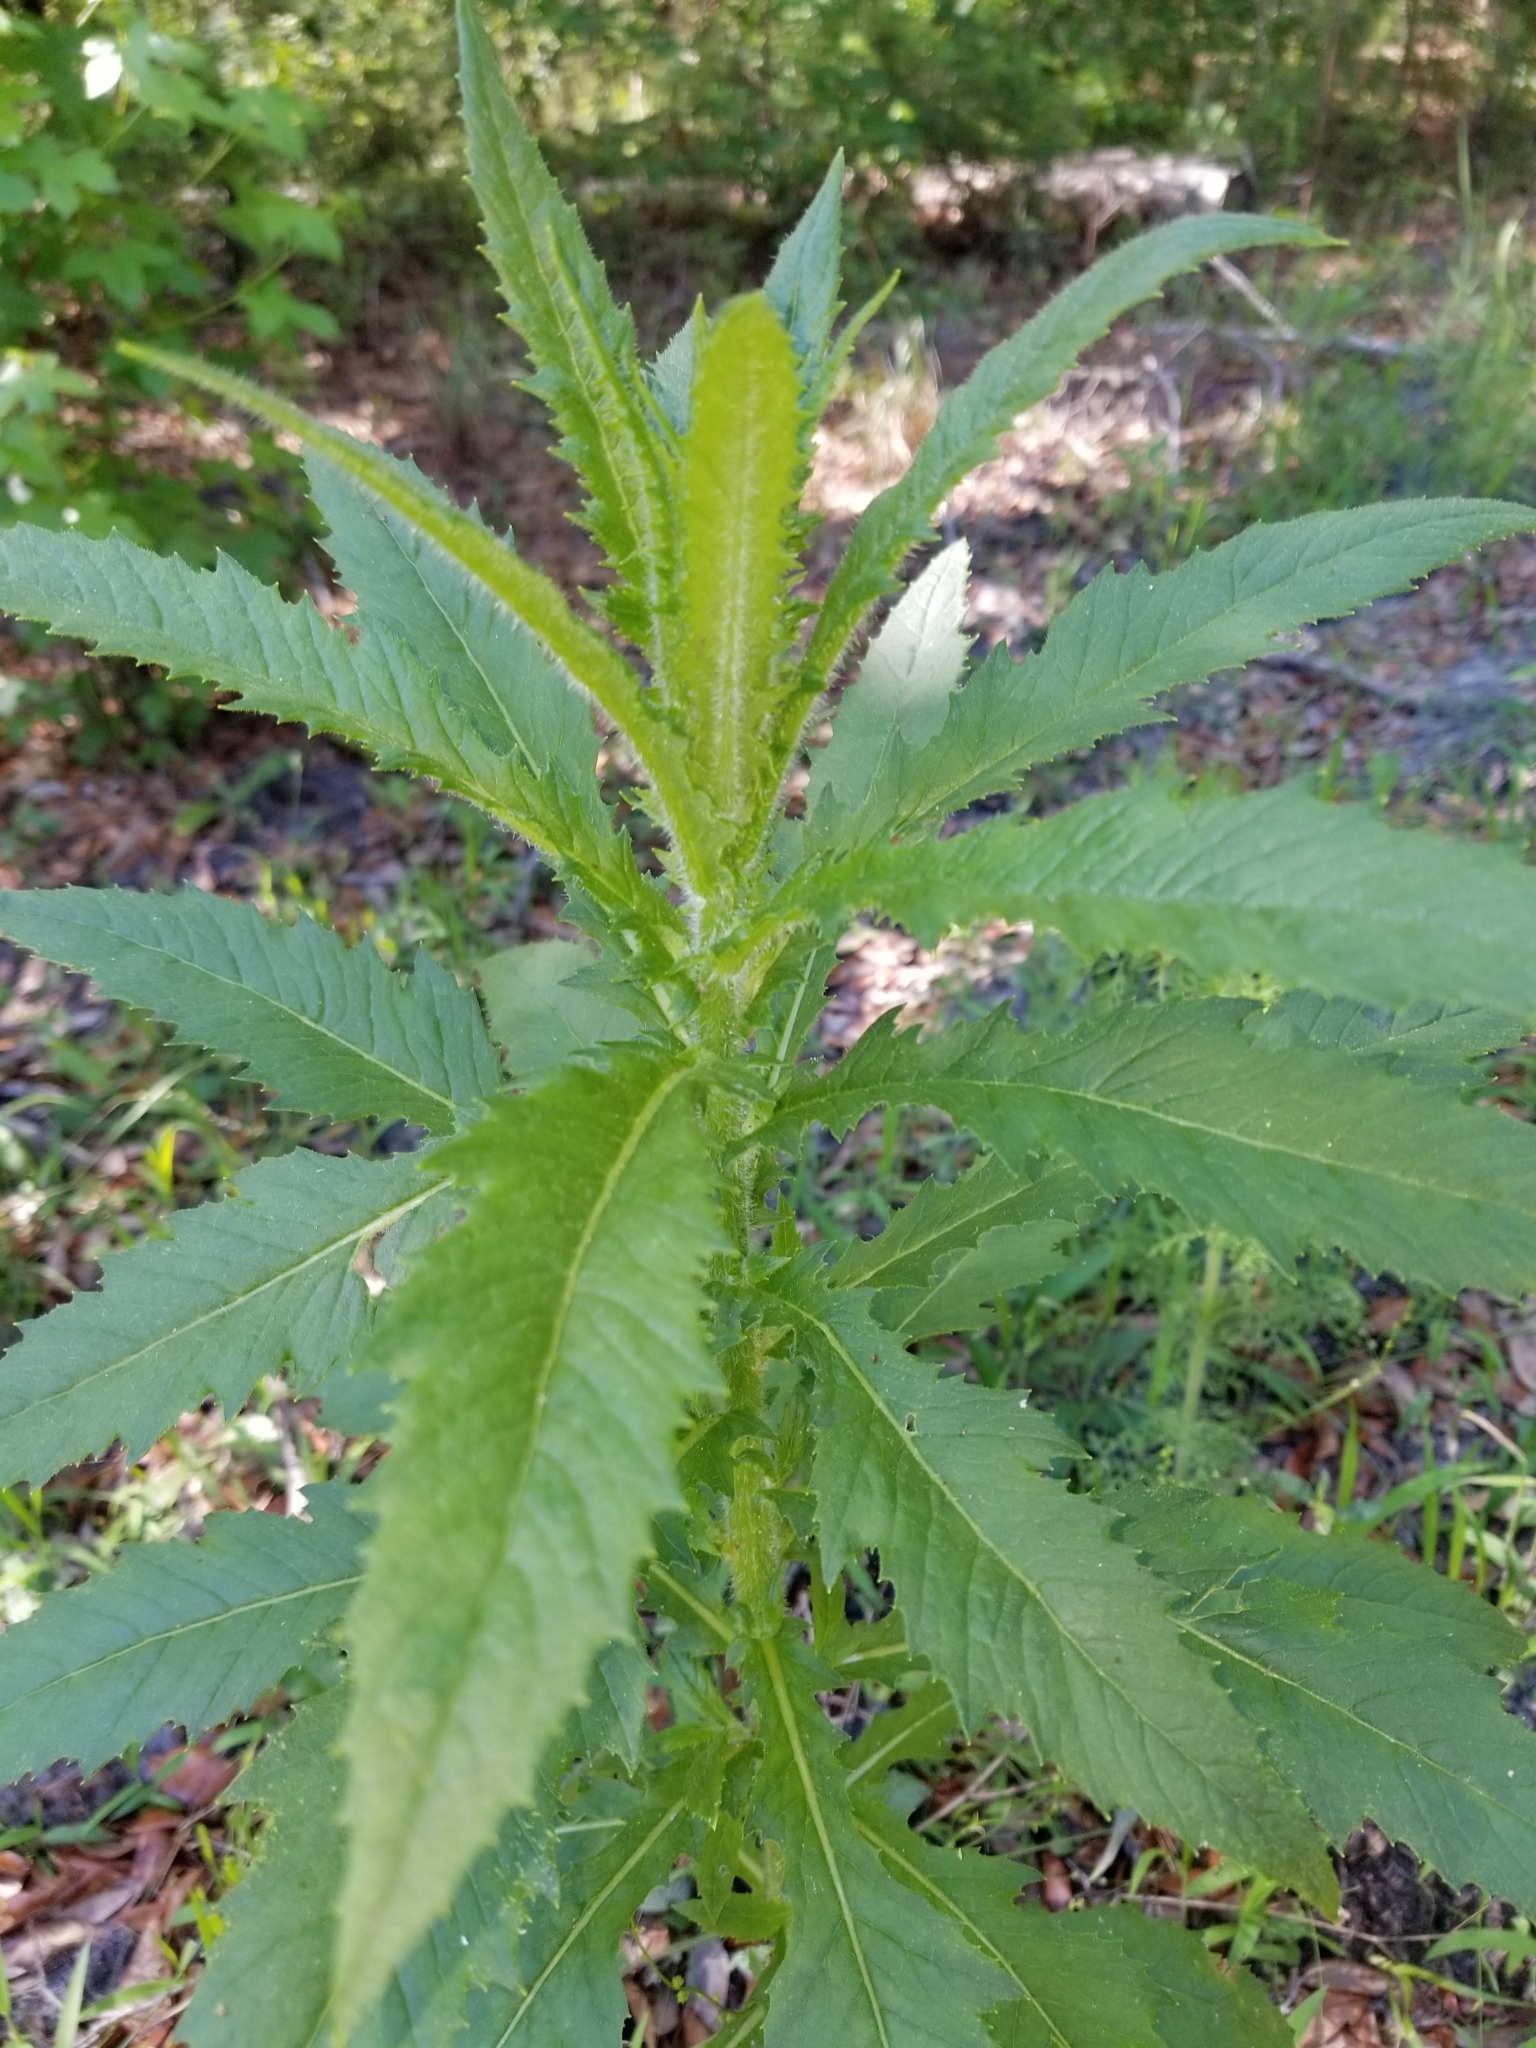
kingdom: Plantae
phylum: Tracheophyta
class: Magnoliopsida
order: Asterales
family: Asteraceae
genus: Erechtites
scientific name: Erechtites hieraciifolius
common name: American burnweed
